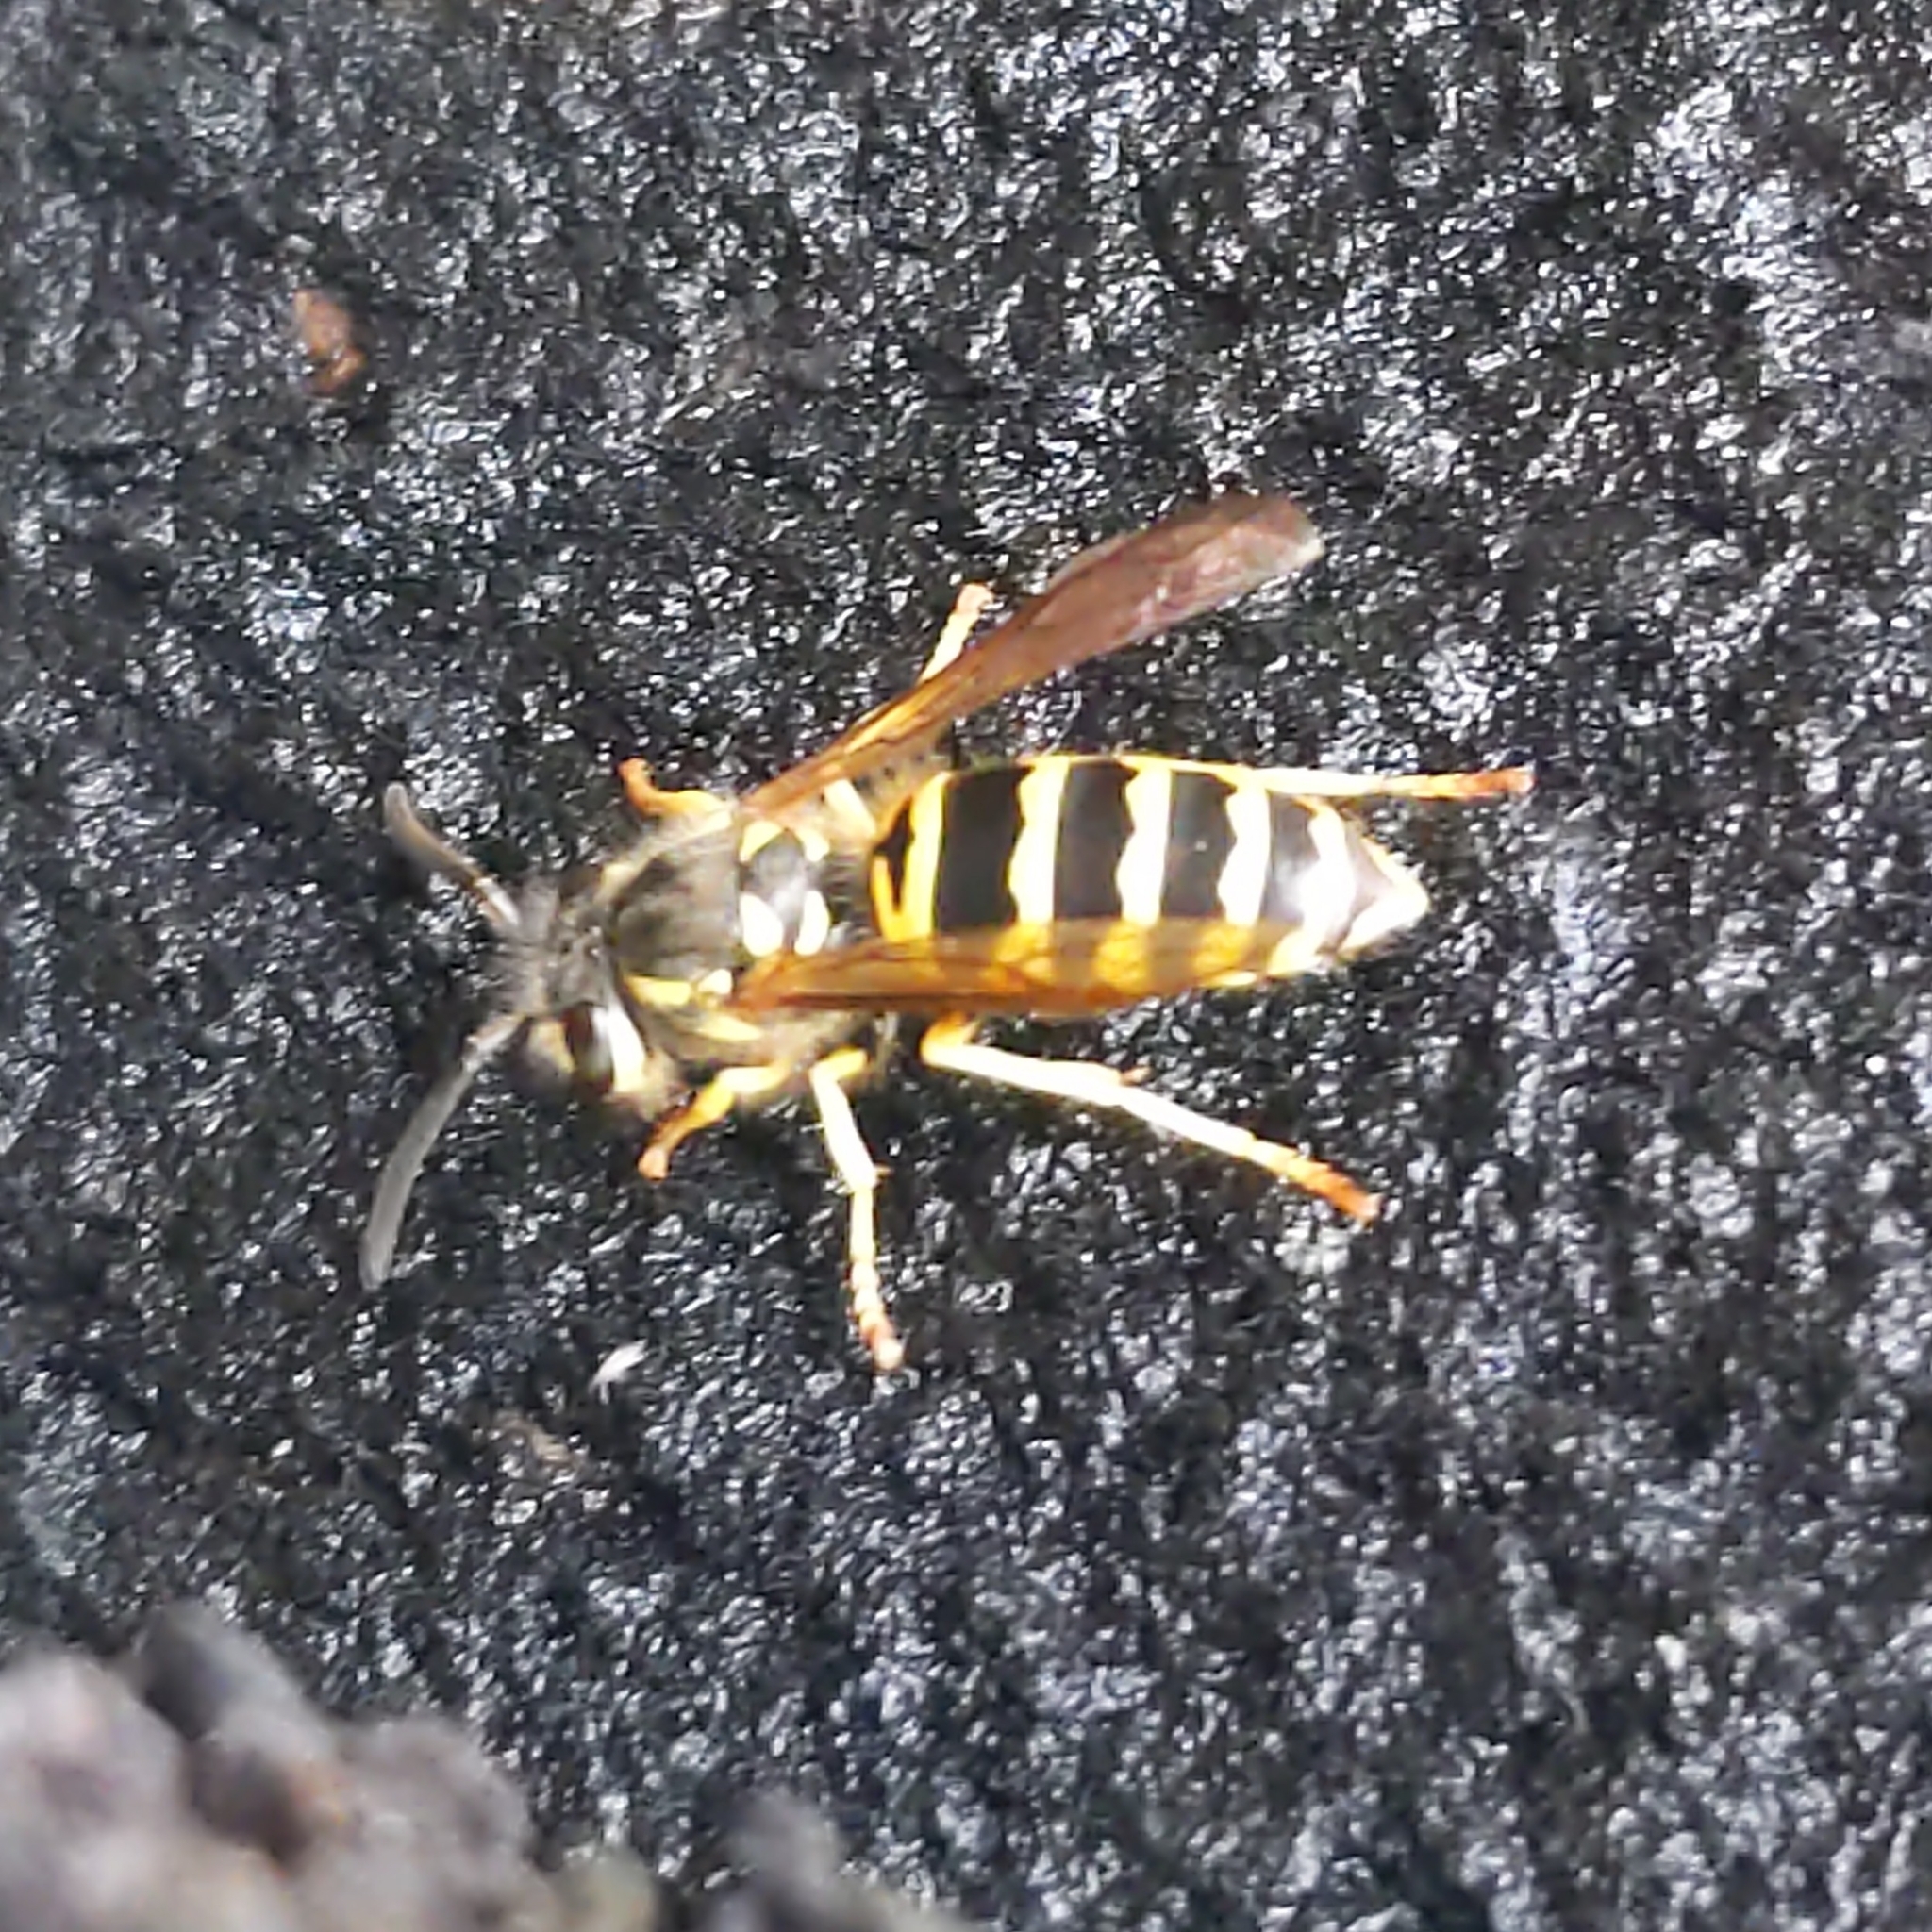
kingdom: Animalia
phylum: Arthropoda
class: Insecta
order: Hymenoptera
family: Vespidae
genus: Vespula
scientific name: Vespula maculifrons
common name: Eastern yellowjacket
